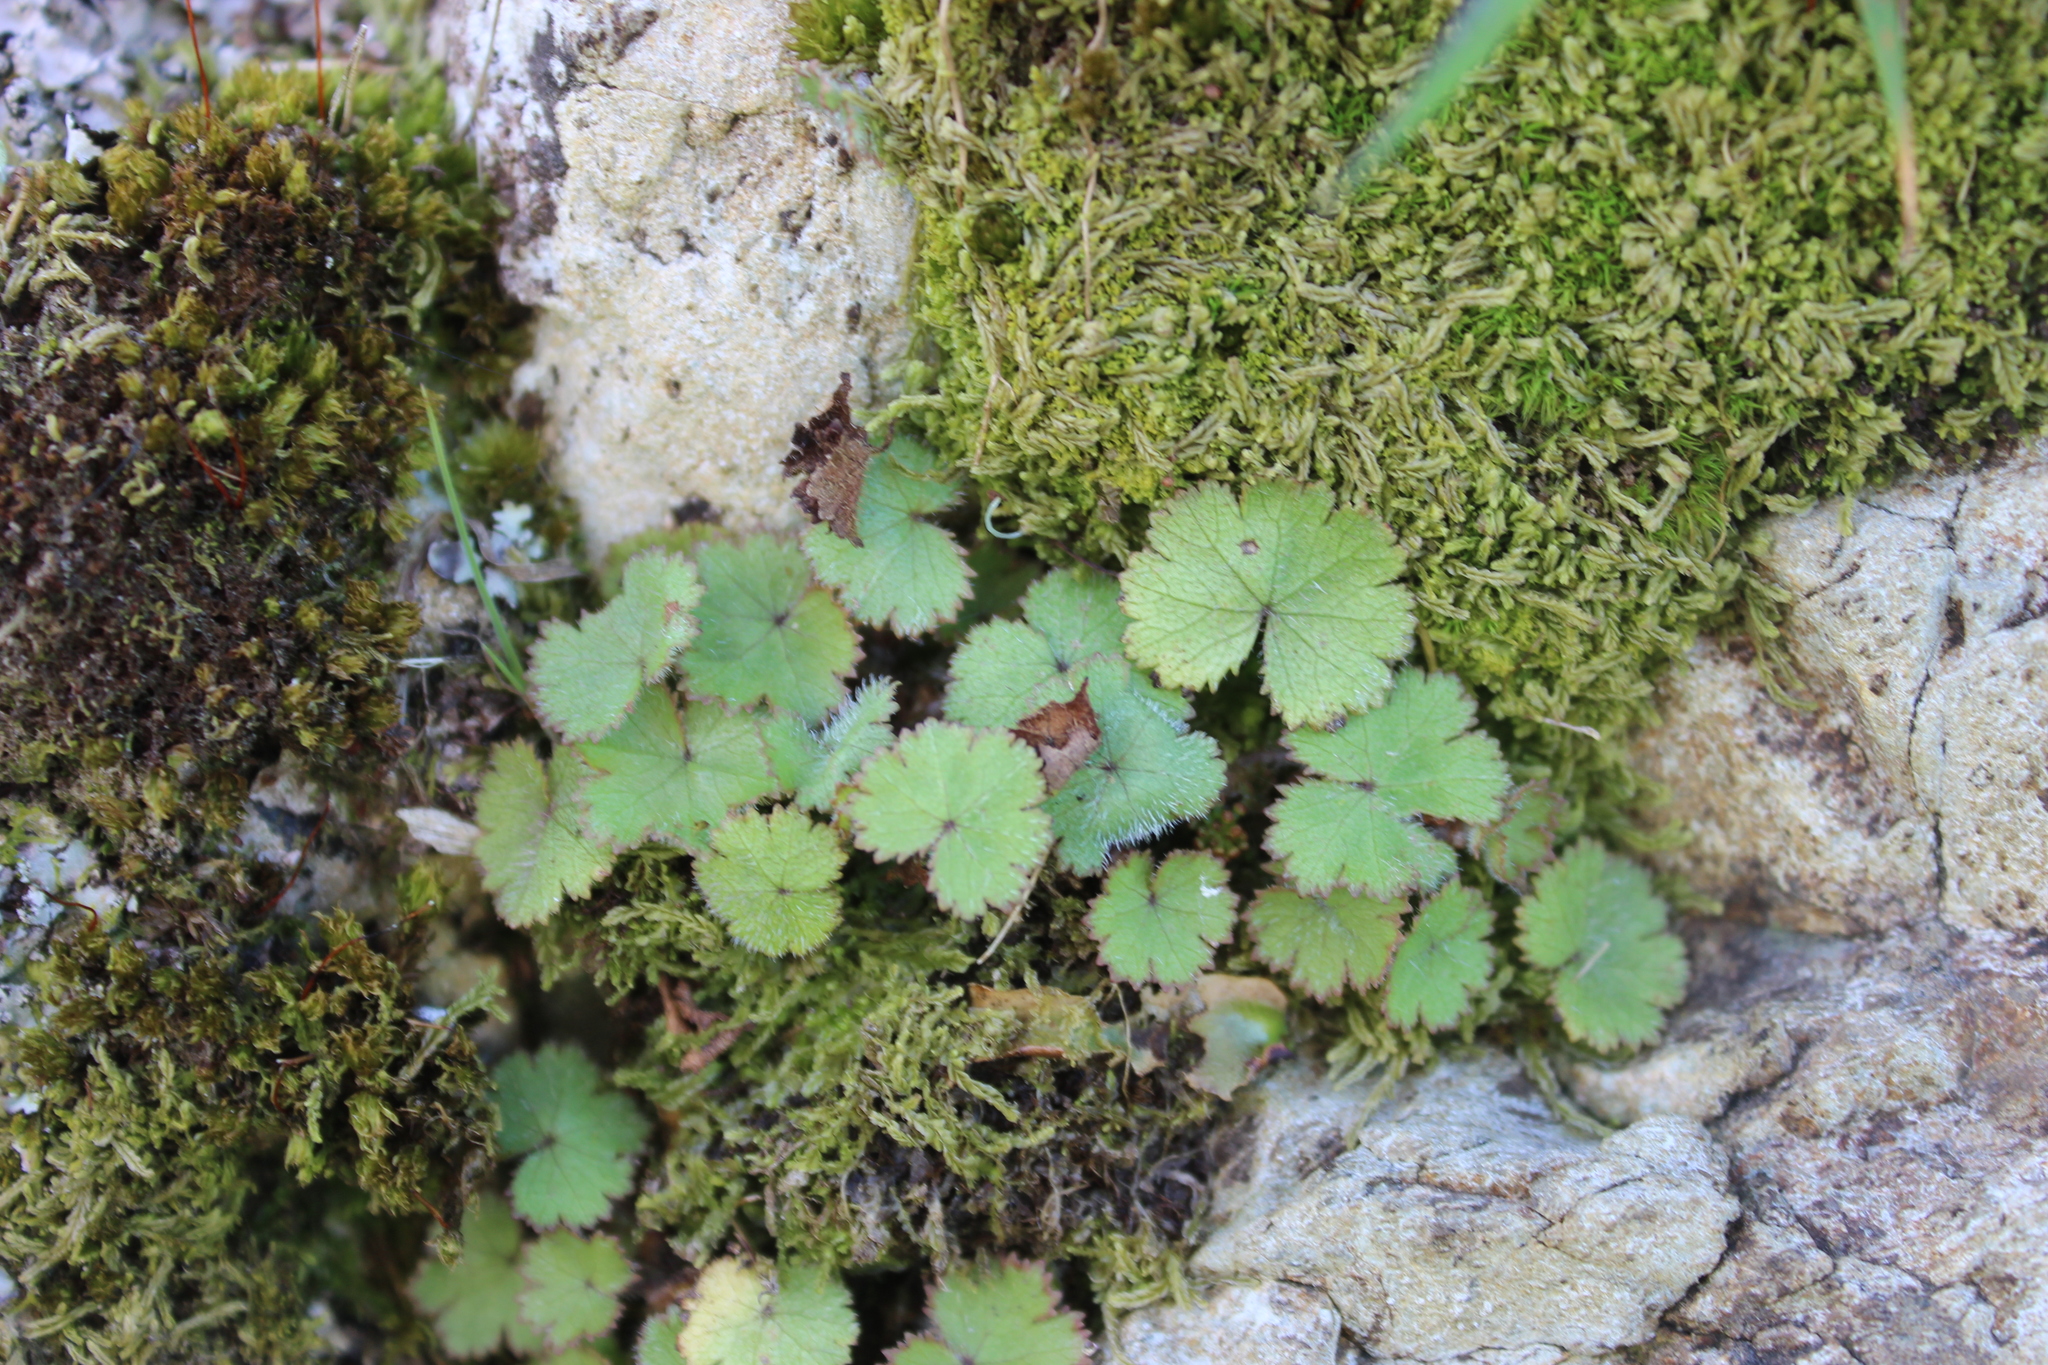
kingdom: Plantae
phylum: Tracheophyta
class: Magnoliopsida
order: Apiales
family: Araliaceae
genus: Hydrocotyle
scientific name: Hydrocotyle moschata
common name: Hairy pennywort
